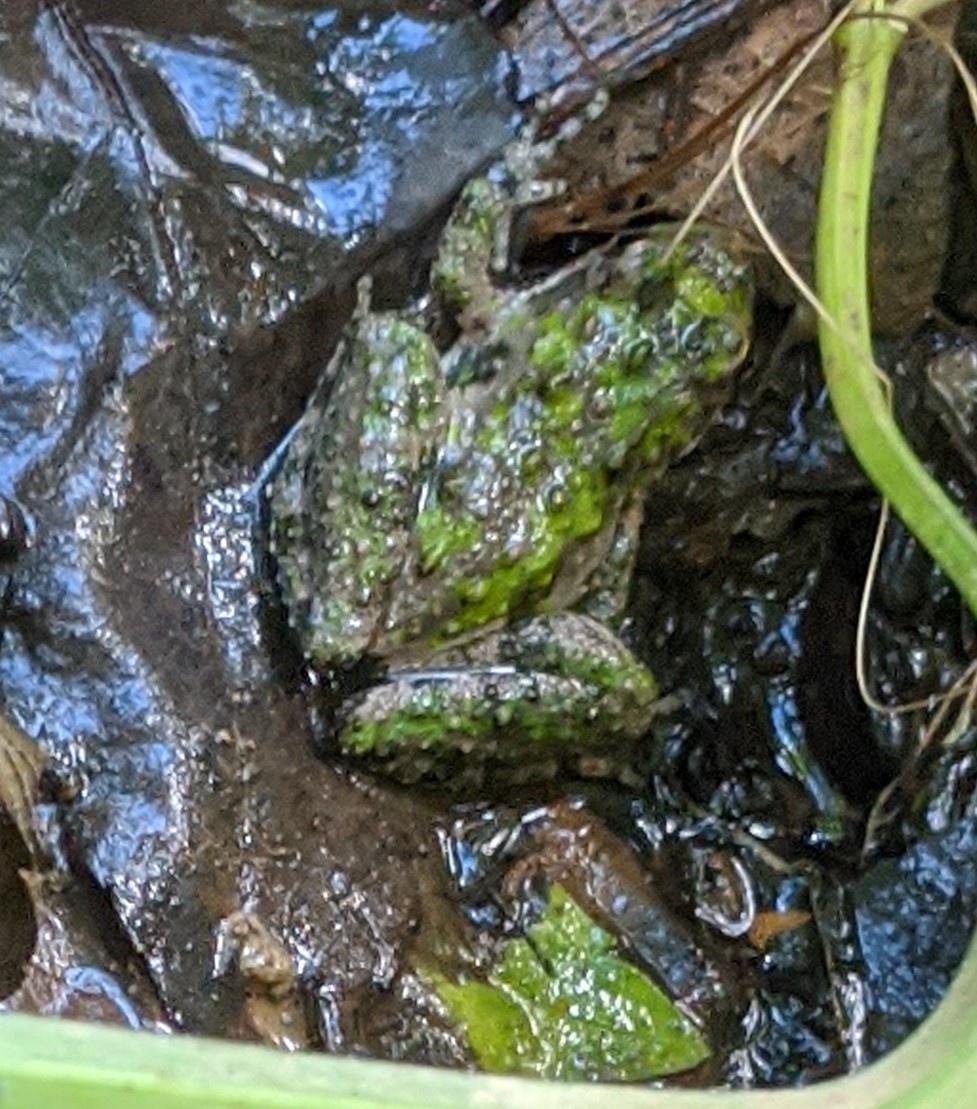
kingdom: Animalia
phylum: Chordata
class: Amphibia
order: Anura
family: Hylidae
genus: Acris
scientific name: Acris crepitans
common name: Northern cricket frog
